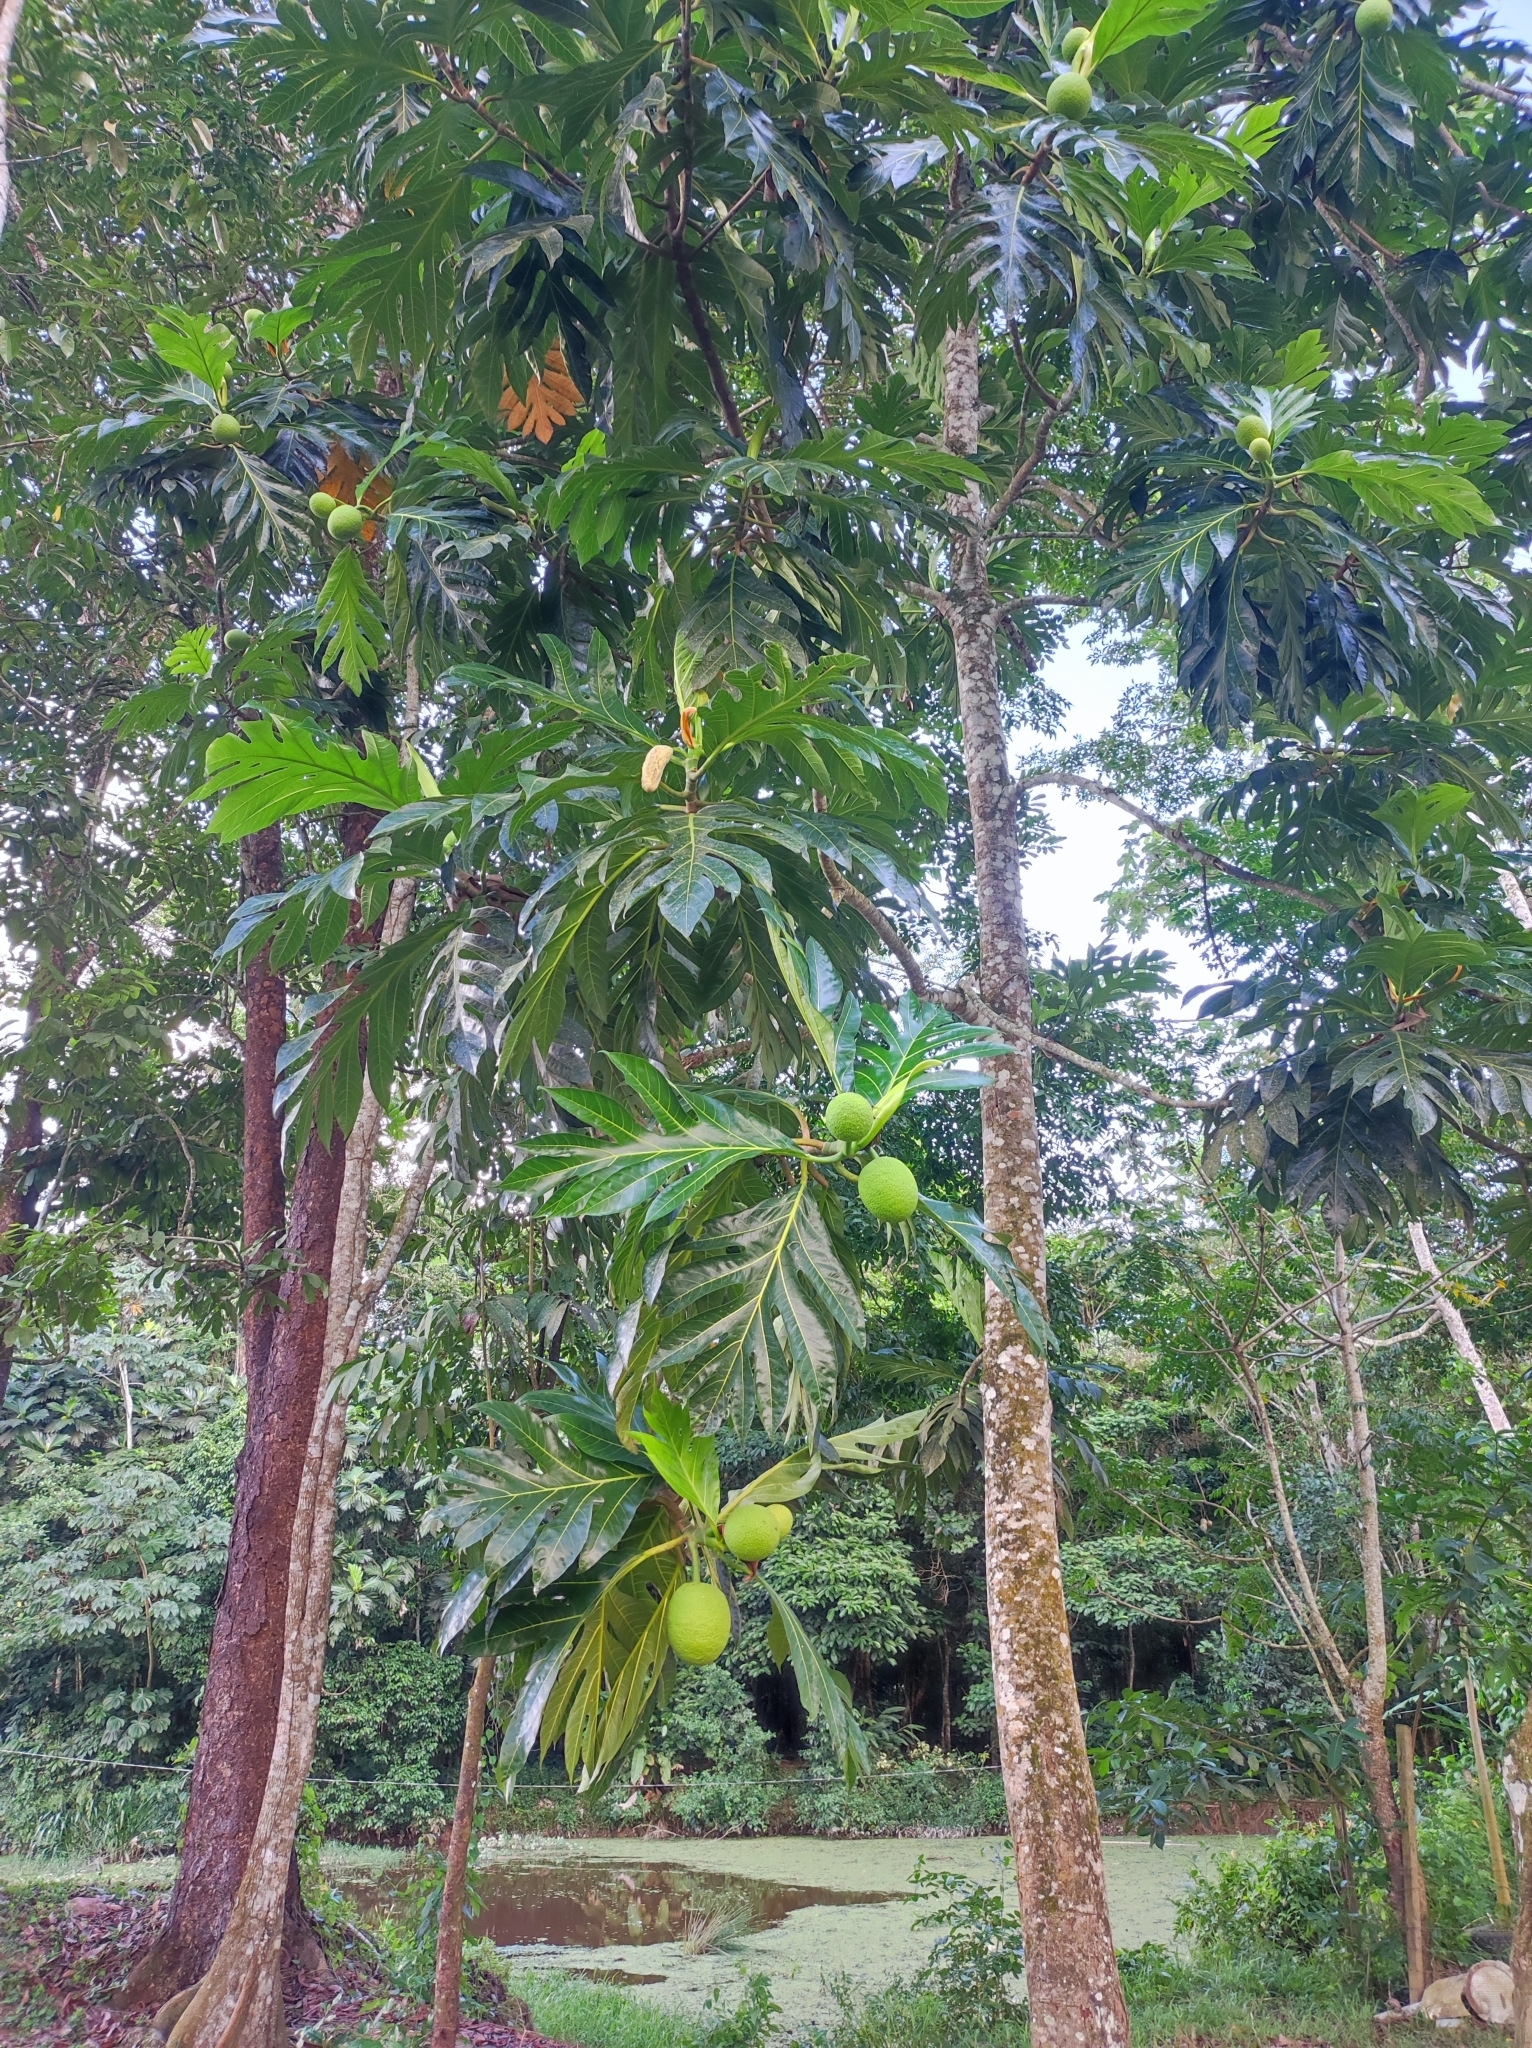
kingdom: Plantae
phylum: Tracheophyta
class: Magnoliopsida
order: Rosales
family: Moraceae
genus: Artocarpus
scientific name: Artocarpus altilis
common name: Breadfruit
